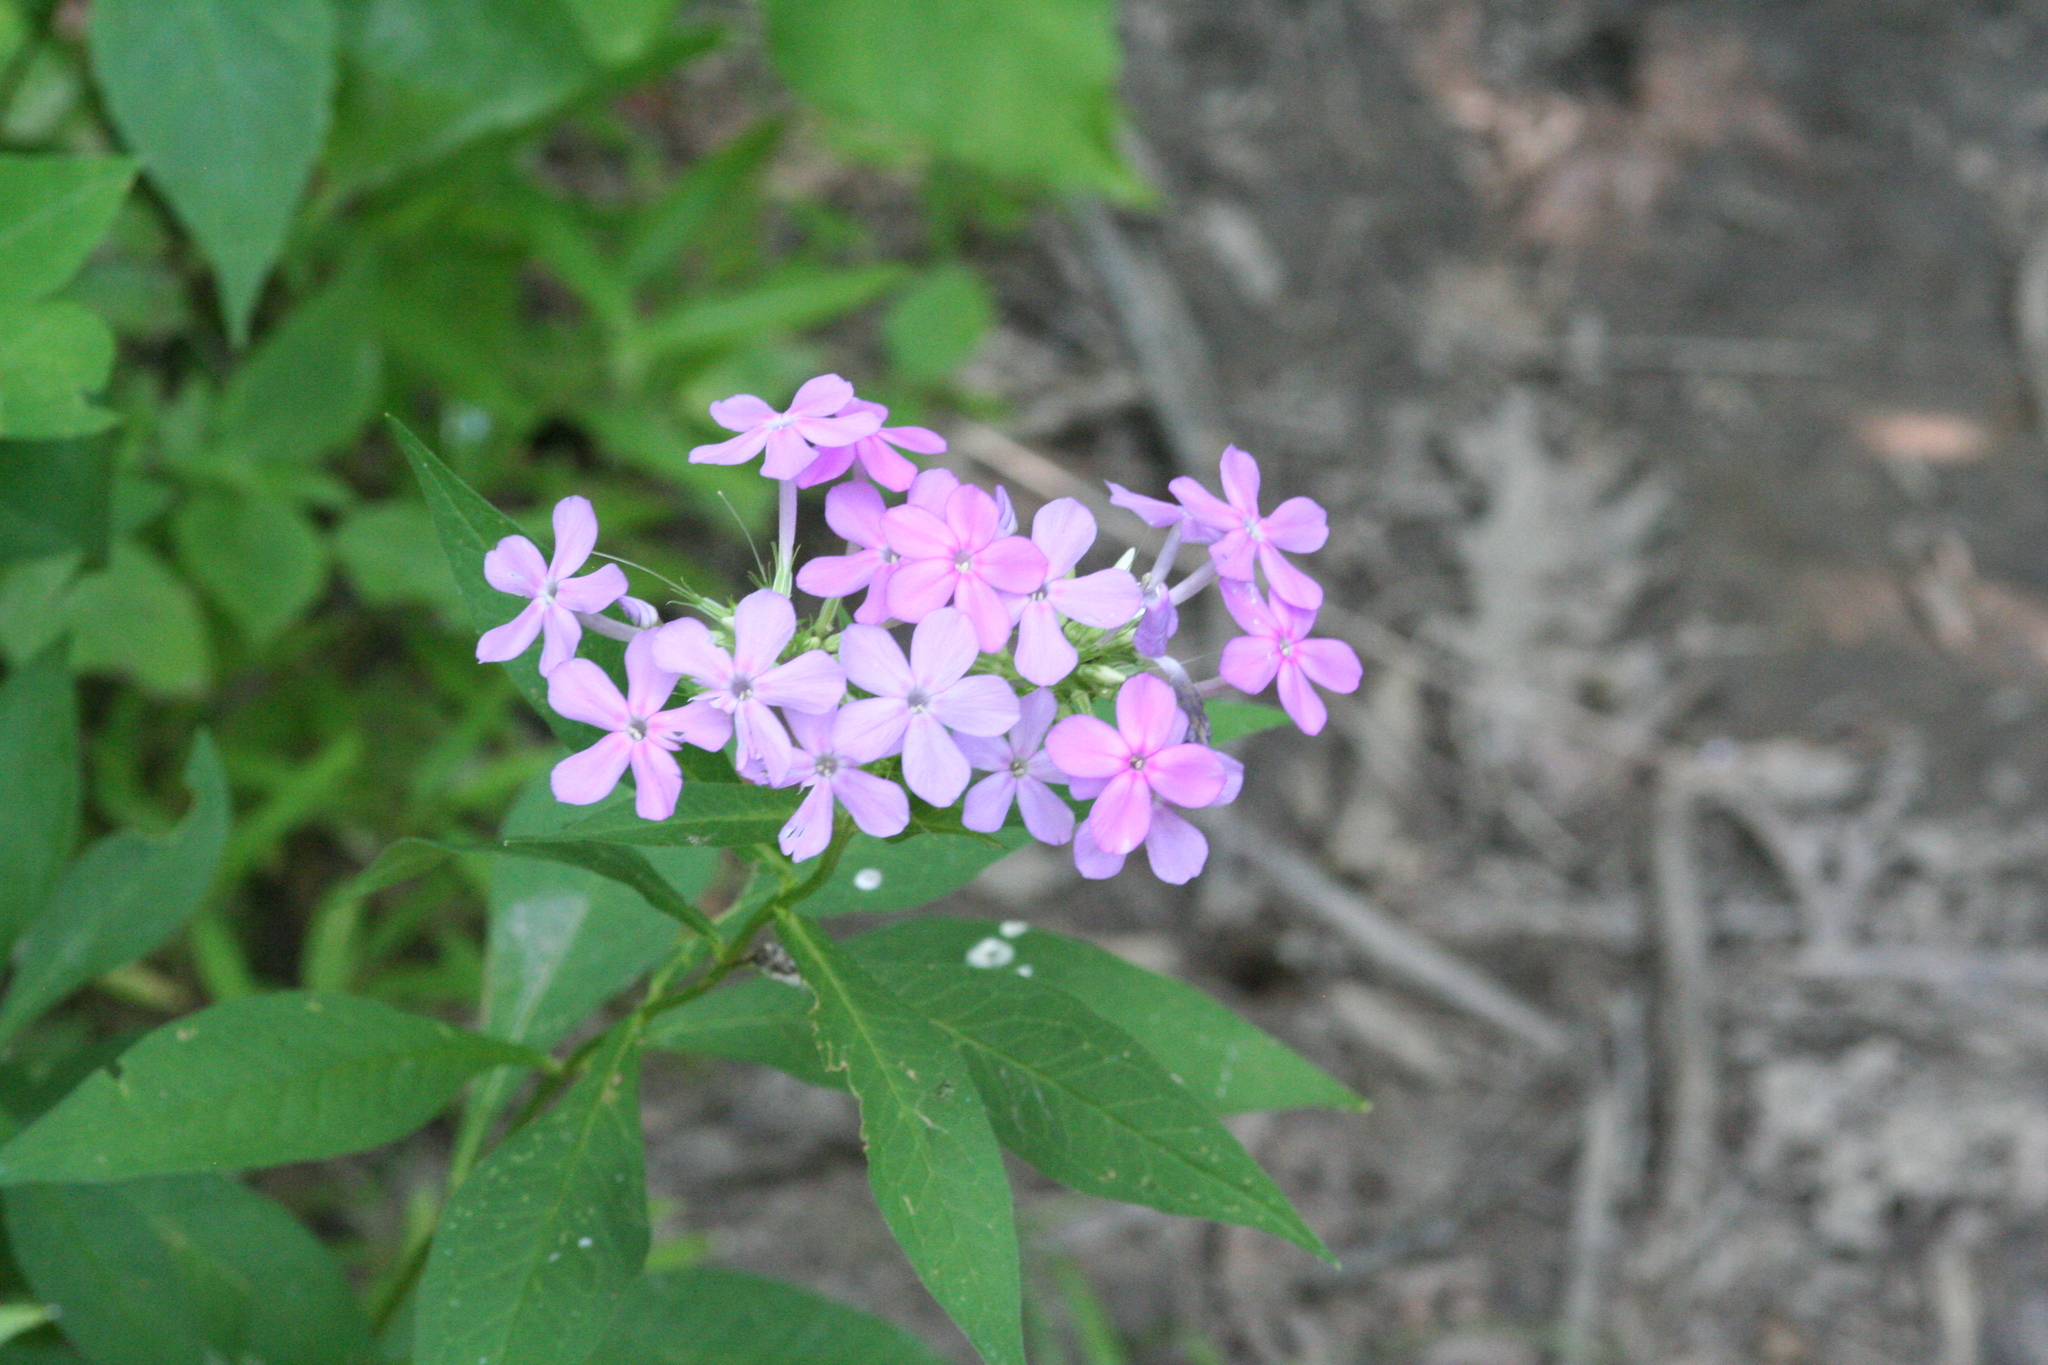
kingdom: Plantae
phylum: Tracheophyta
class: Magnoliopsida
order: Ericales
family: Polemoniaceae
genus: Phlox
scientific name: Phlox paniculata
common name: Fall phlox
